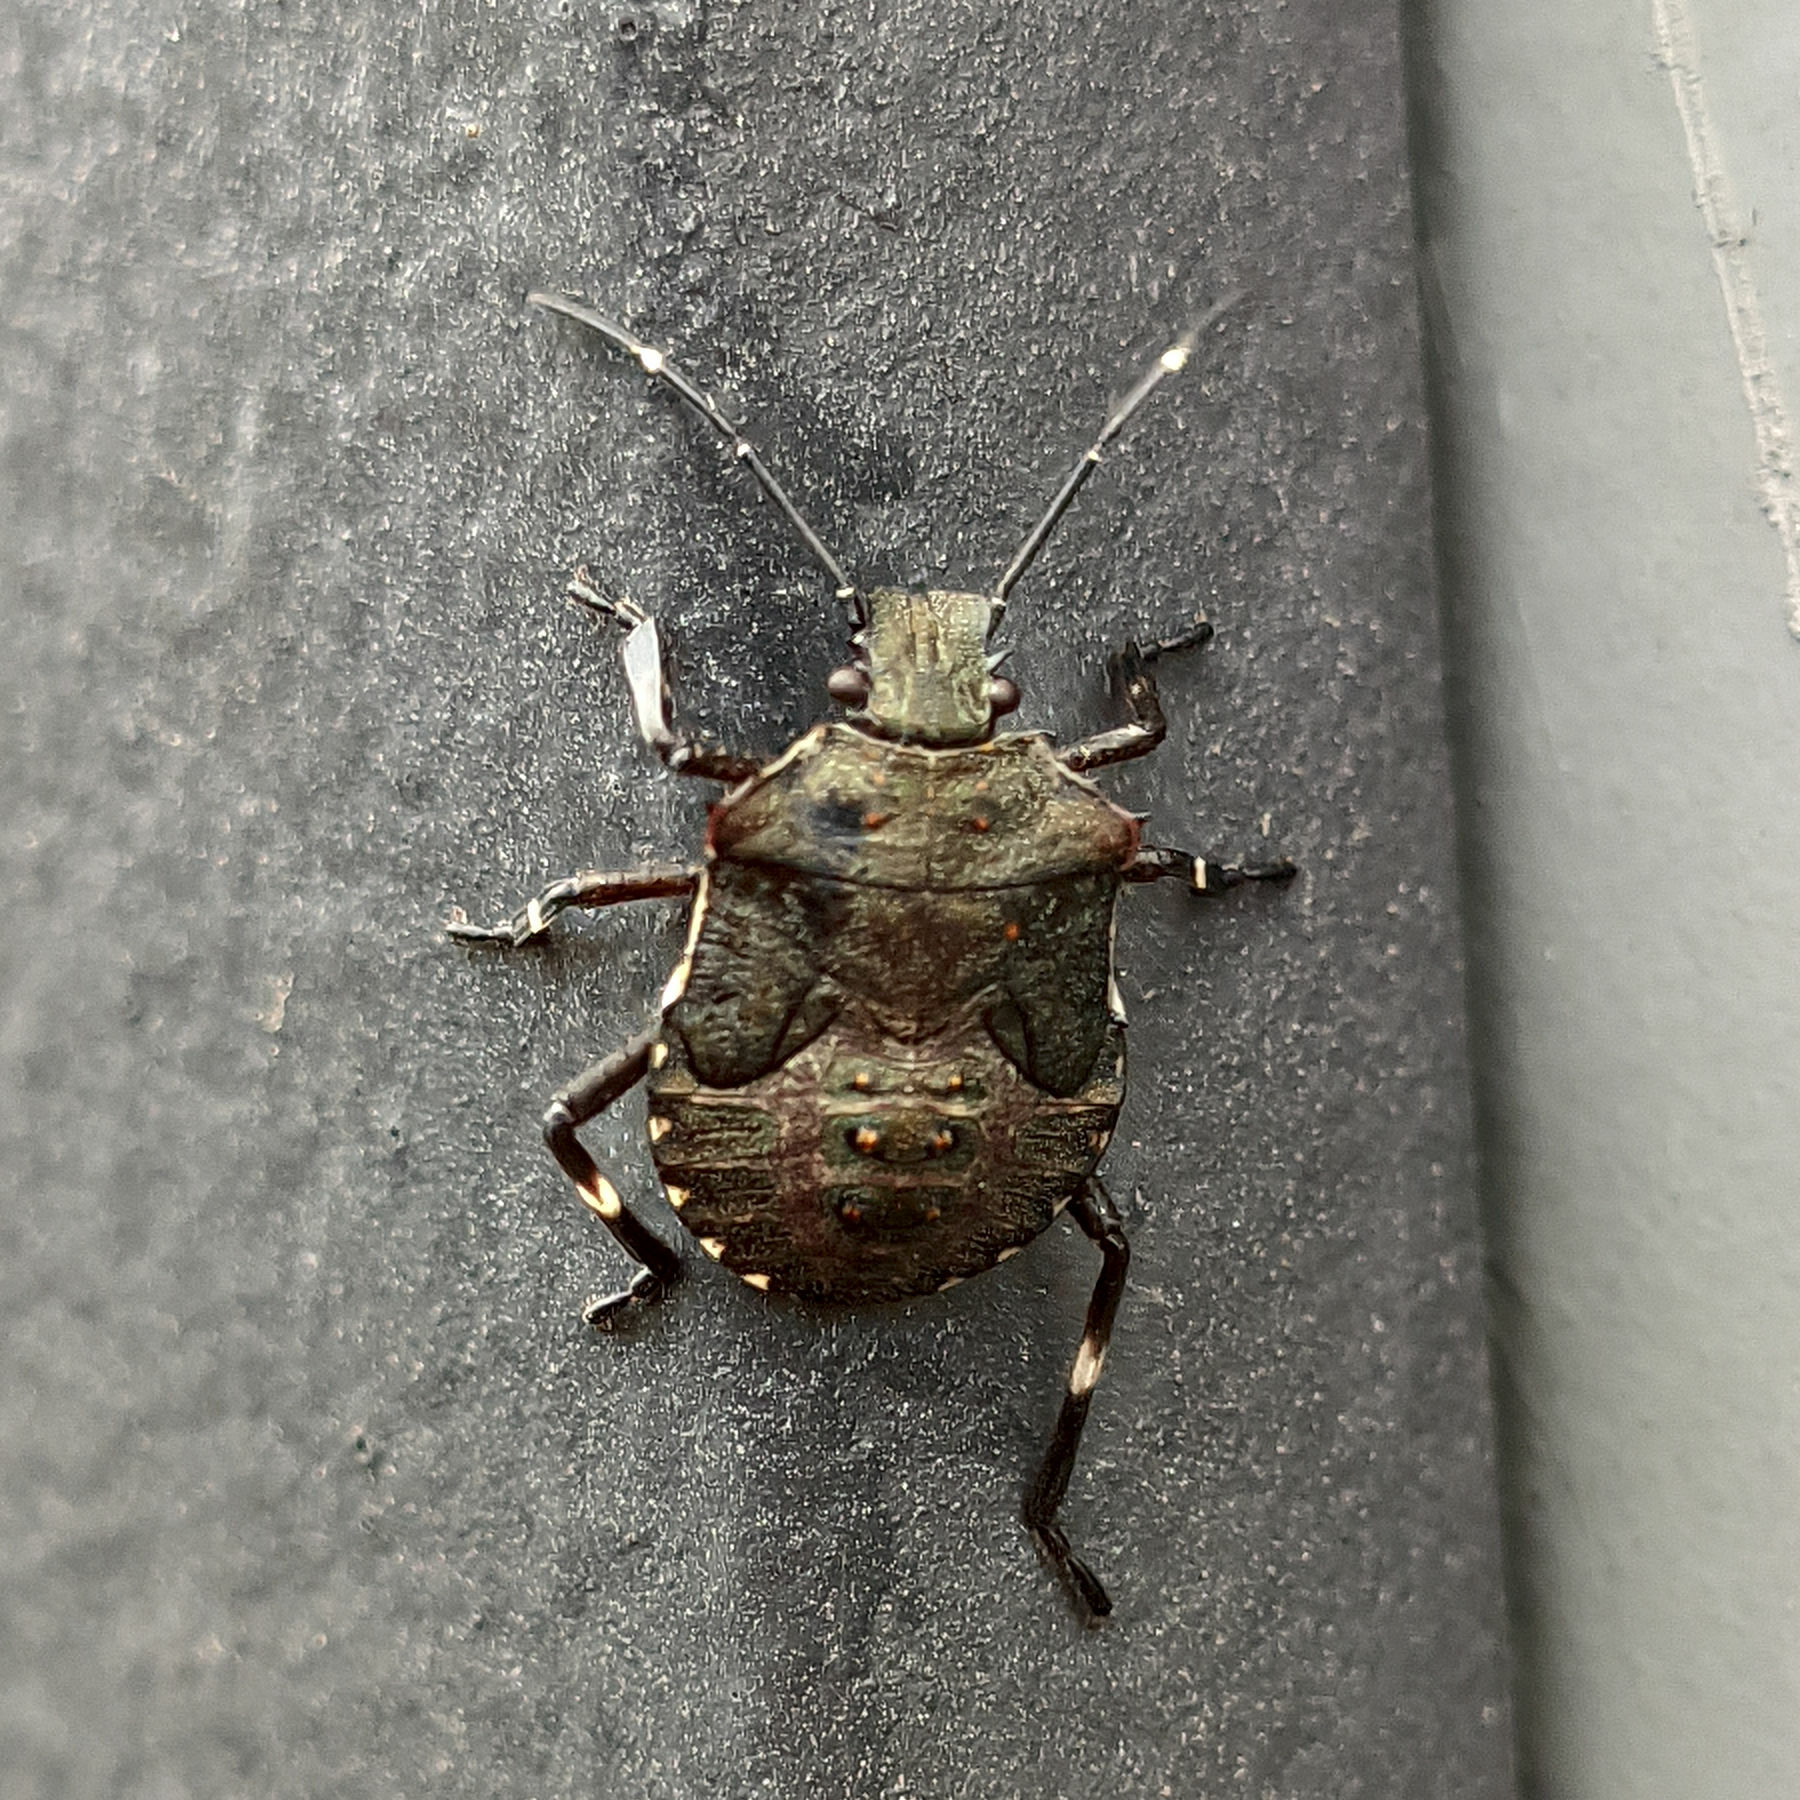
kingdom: Animalia
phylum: Arthropoda
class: Insecta
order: Hemiptera
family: Pentatomidae
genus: Halyomorpha
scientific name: Halyomorpha halys
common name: Brown marmorated stink bug
